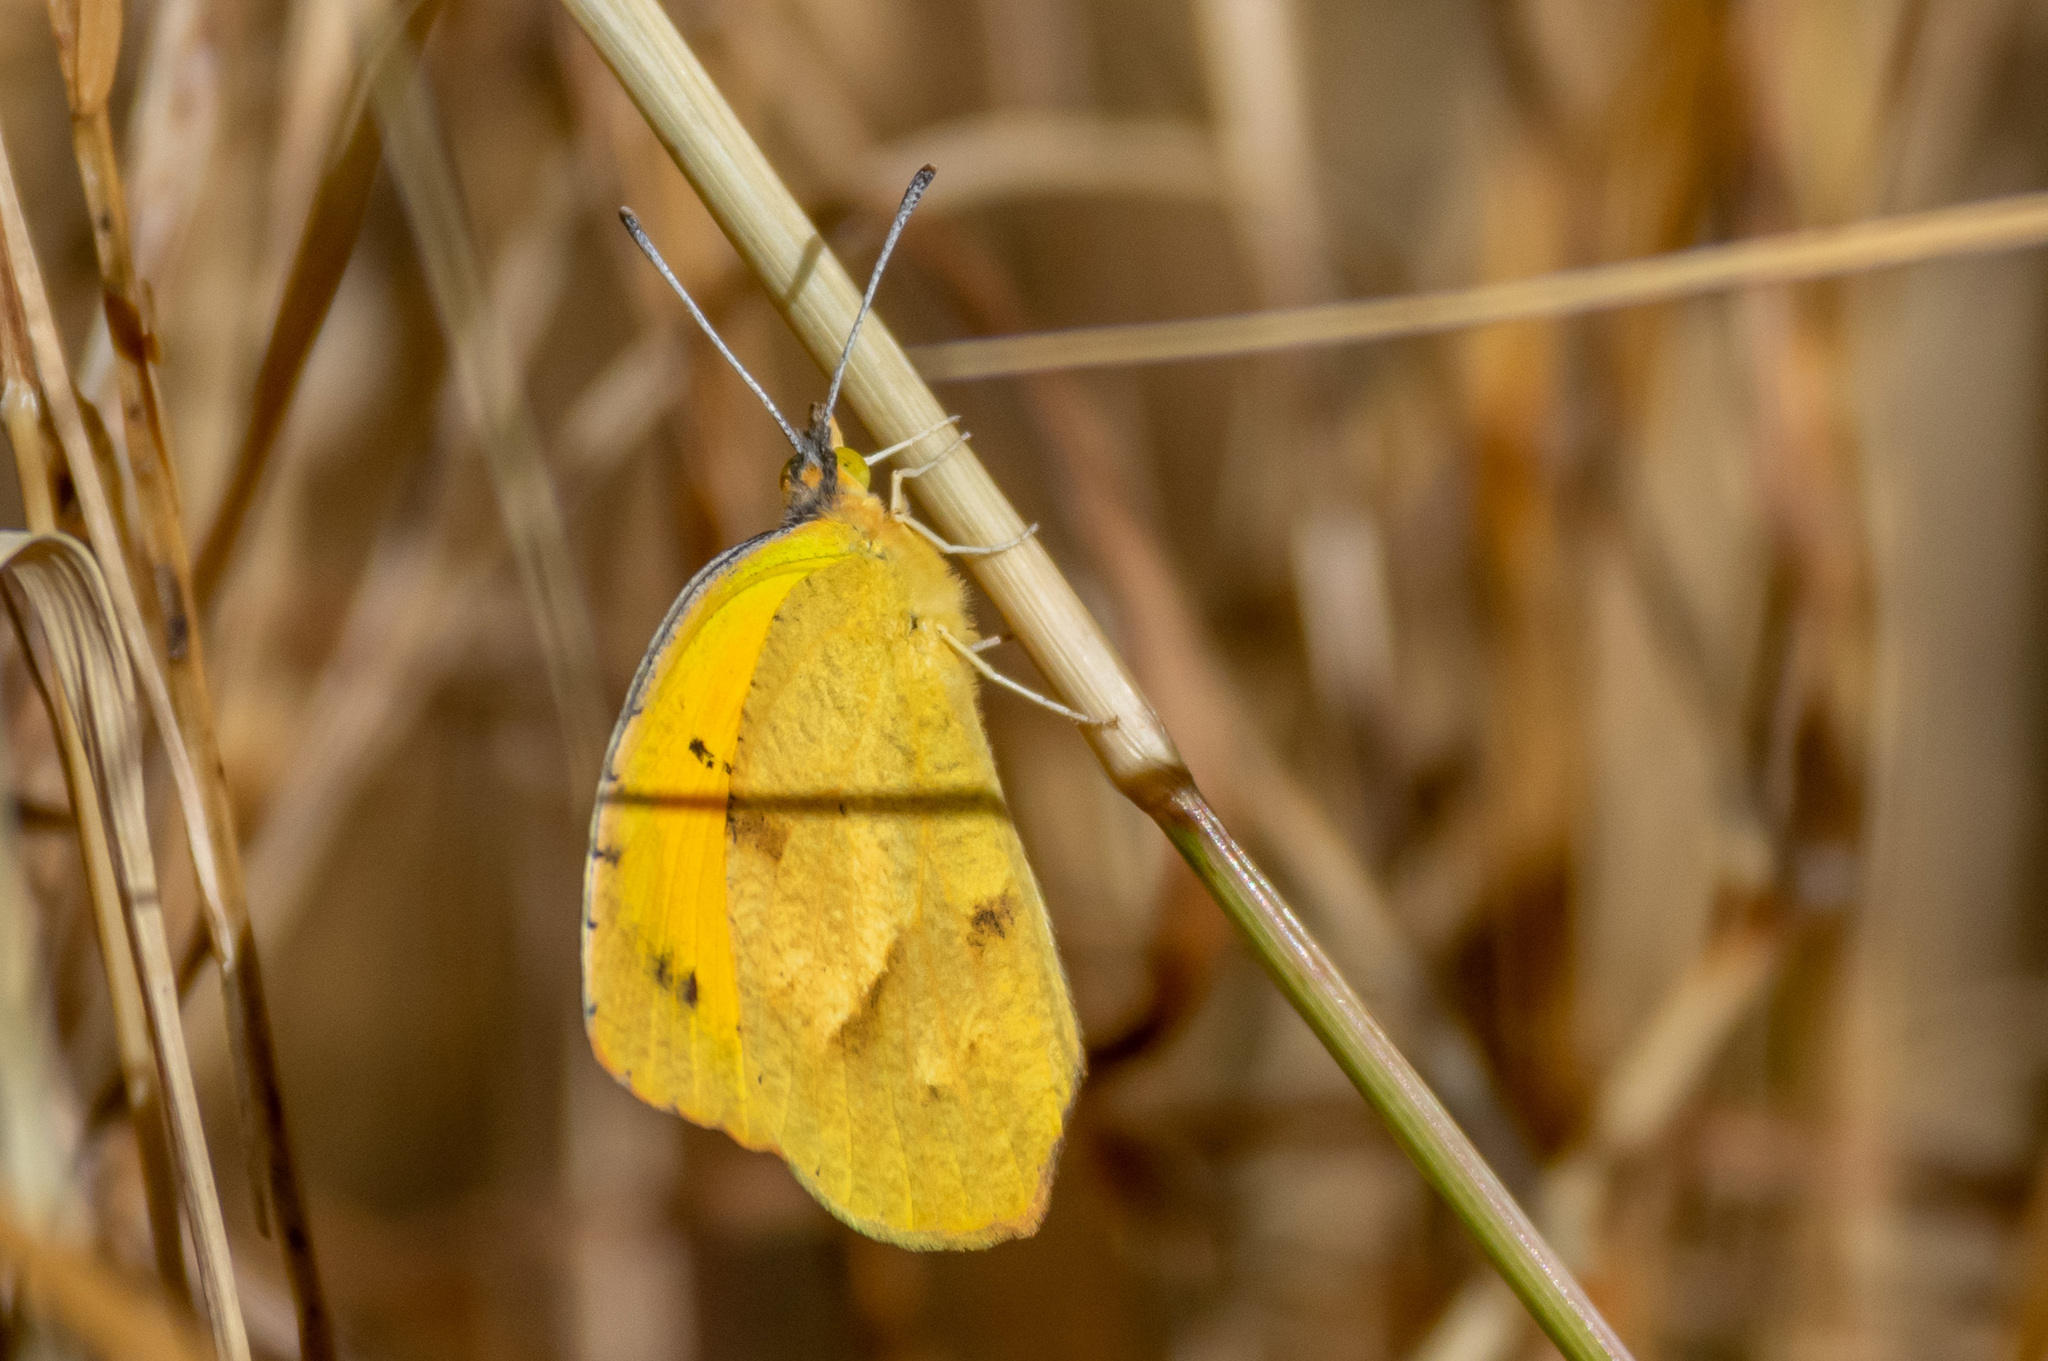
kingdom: Animalia
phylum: Arthropoda
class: Insecta
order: Lepidoptera
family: Pieridae
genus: Abaeis
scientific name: Abaeis nicippe
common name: Sleepy orange
